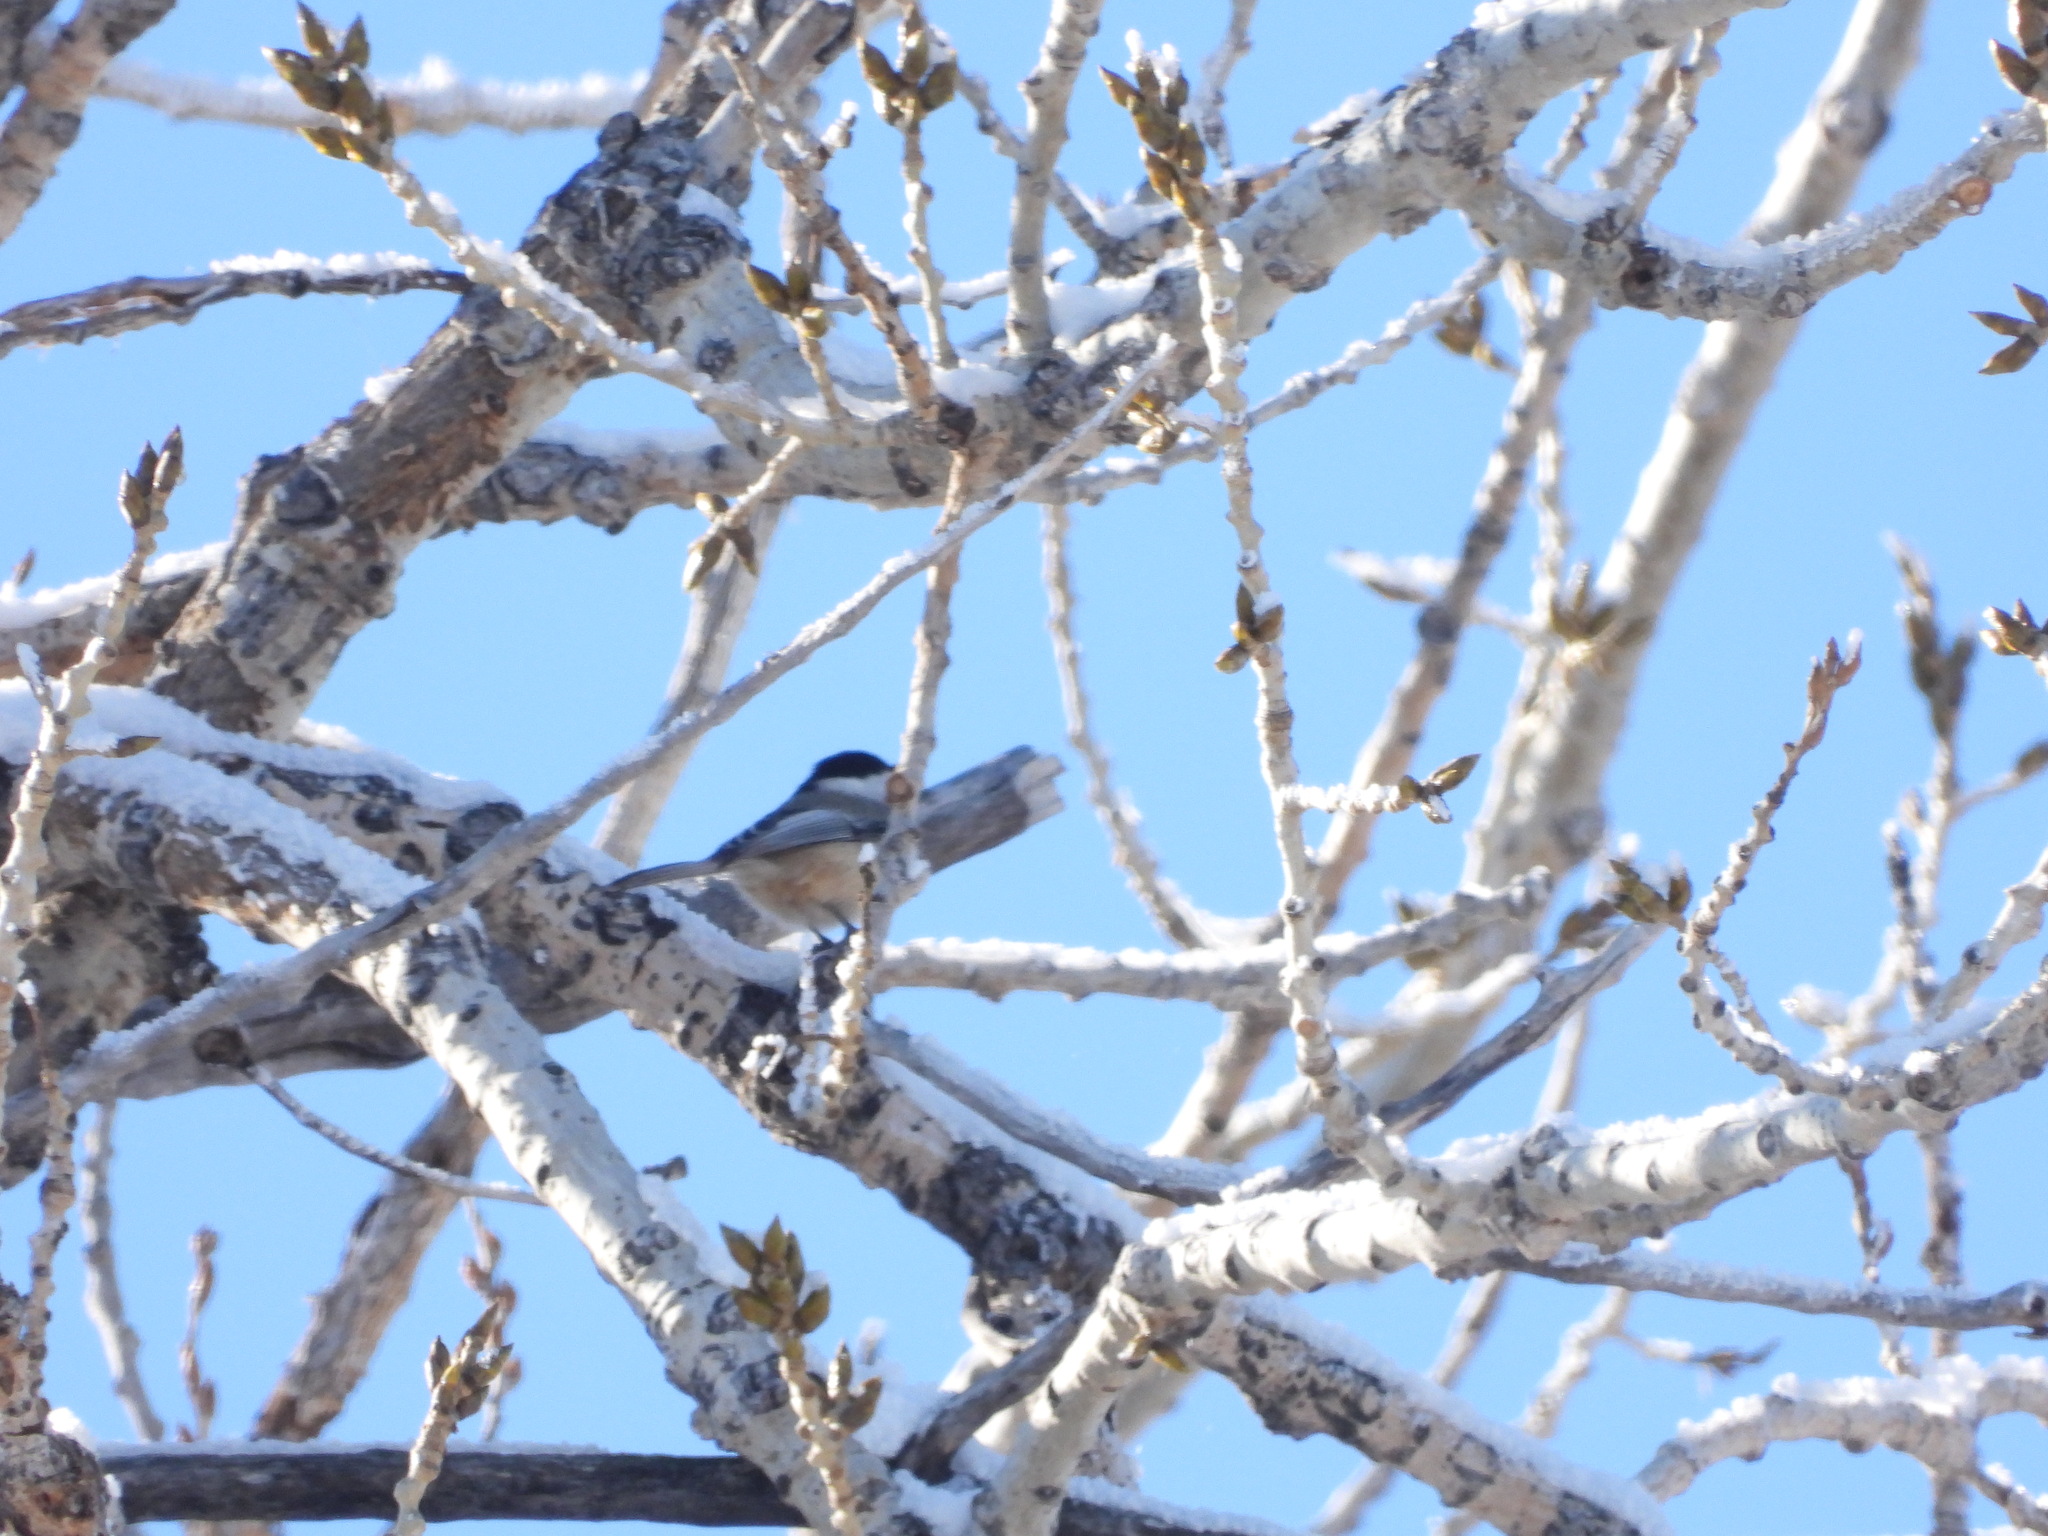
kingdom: Animalia
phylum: Chordata
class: Aves
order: Passeriformes
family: Paridae
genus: Poecile
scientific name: Poecile atricapillus
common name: Black-capped chickadee
